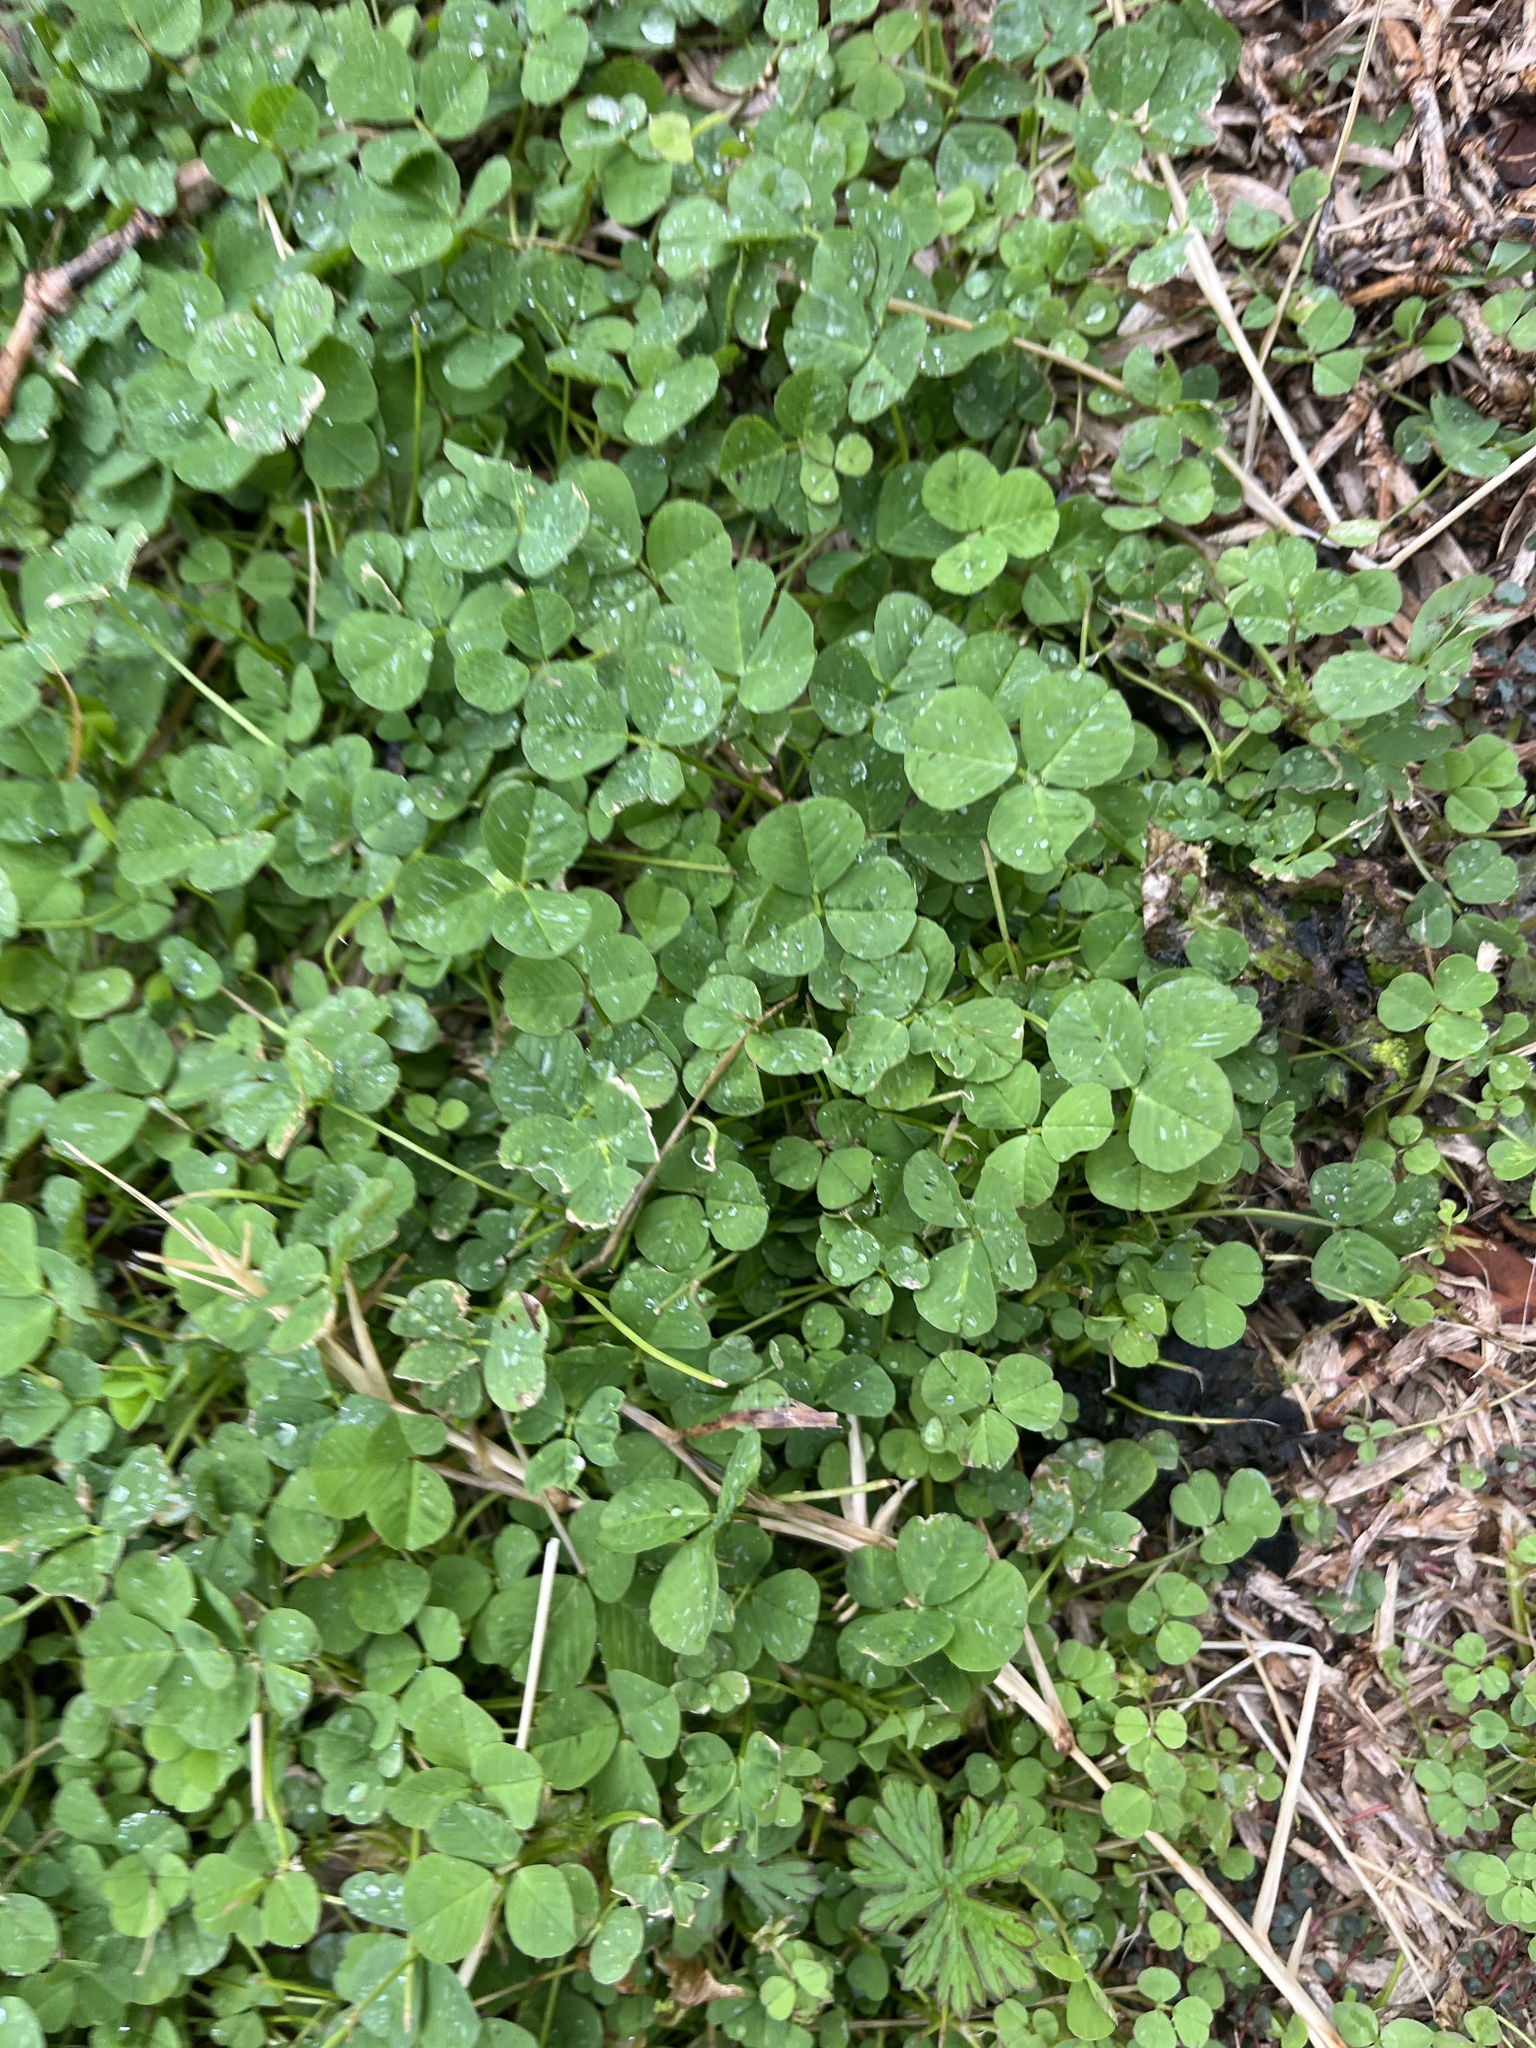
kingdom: Plantae
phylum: Tracheophyta
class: Magnoliopsida
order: Fabales
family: Fabaceae
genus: Medicago
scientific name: Medicago polymorpha
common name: Burclover
